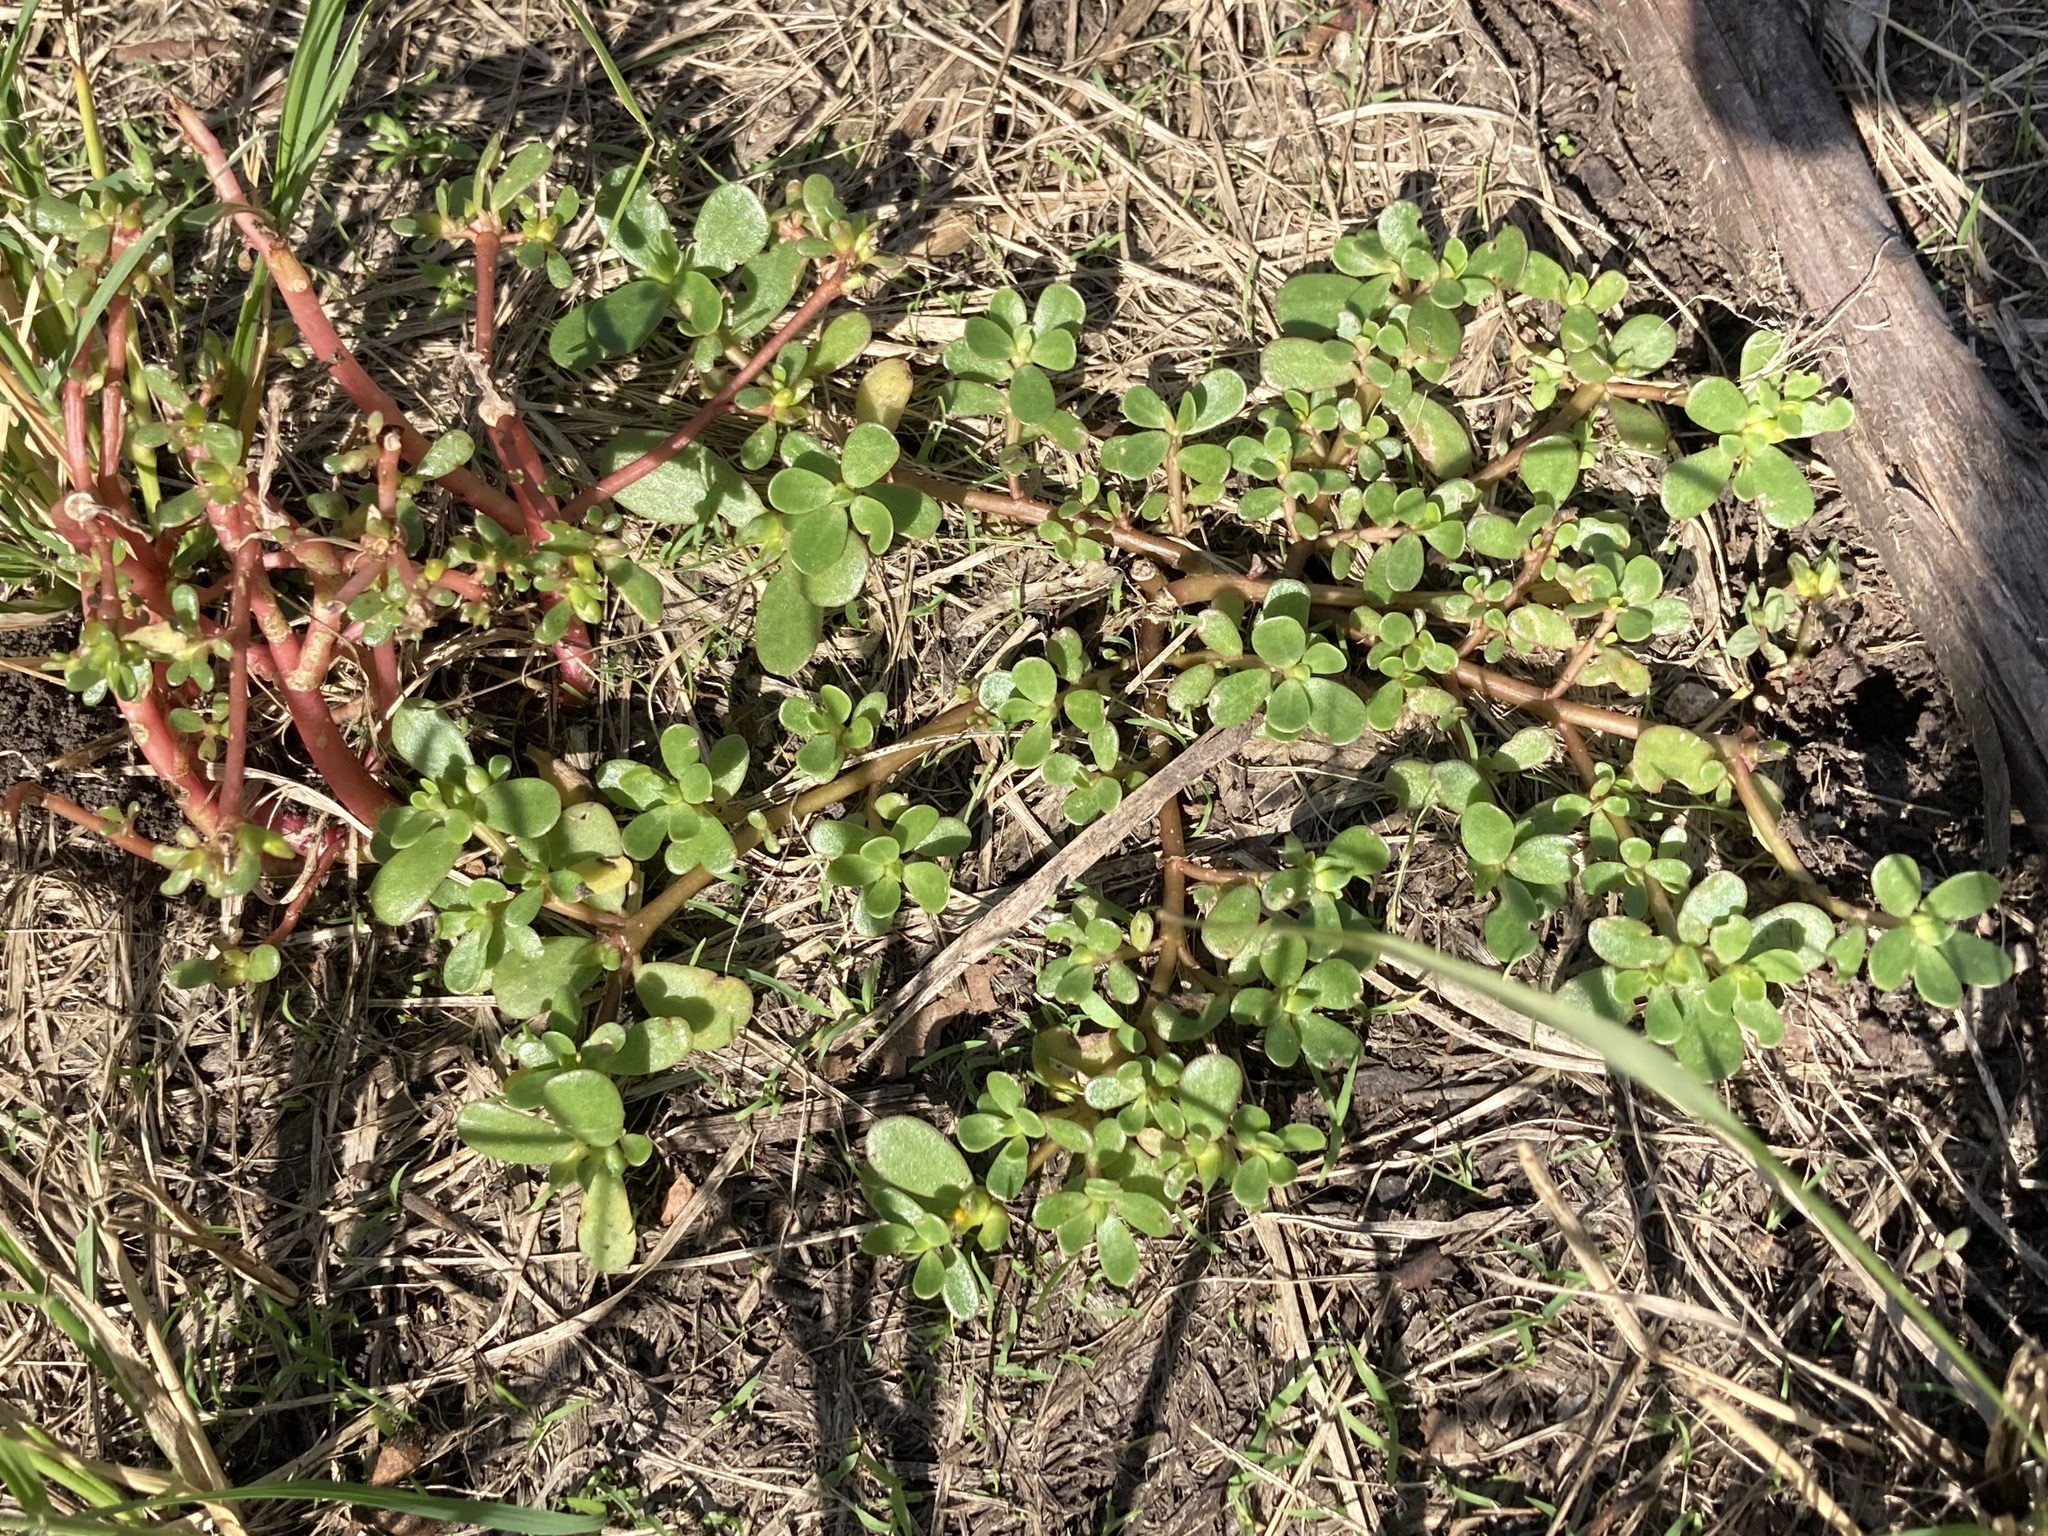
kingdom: Plantae
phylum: Tracheophyta
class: Magnoliopsida
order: Caryophyllales
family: Portulacaceae
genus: Portulaca
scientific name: Portulaca oleracea
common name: Common purslane
